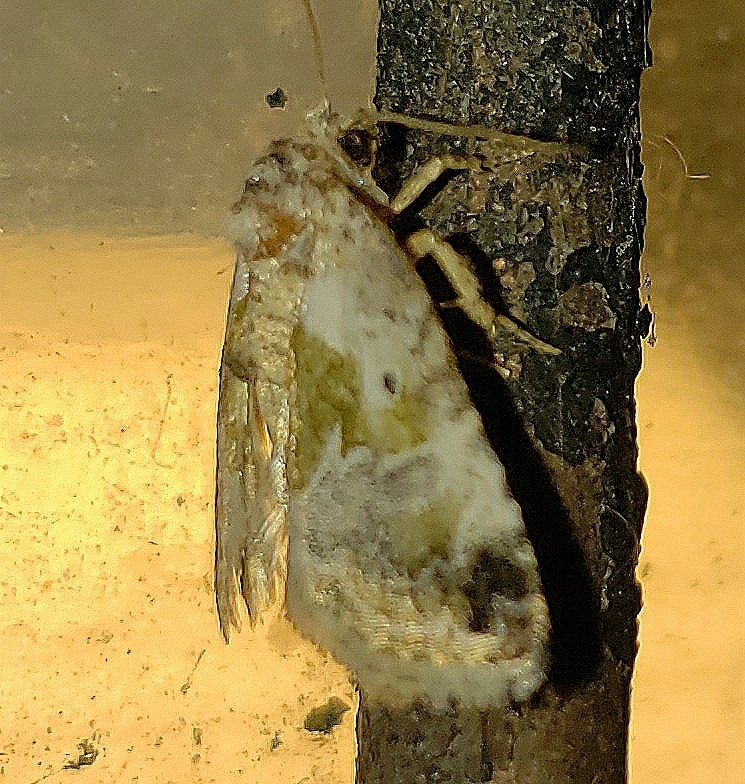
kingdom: Animalia
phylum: Arthropoda
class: Insecta
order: Lepidoptera
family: Noctuidae
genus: Maliattha
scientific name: Maliattha synochitis
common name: Black-dotted glyph
